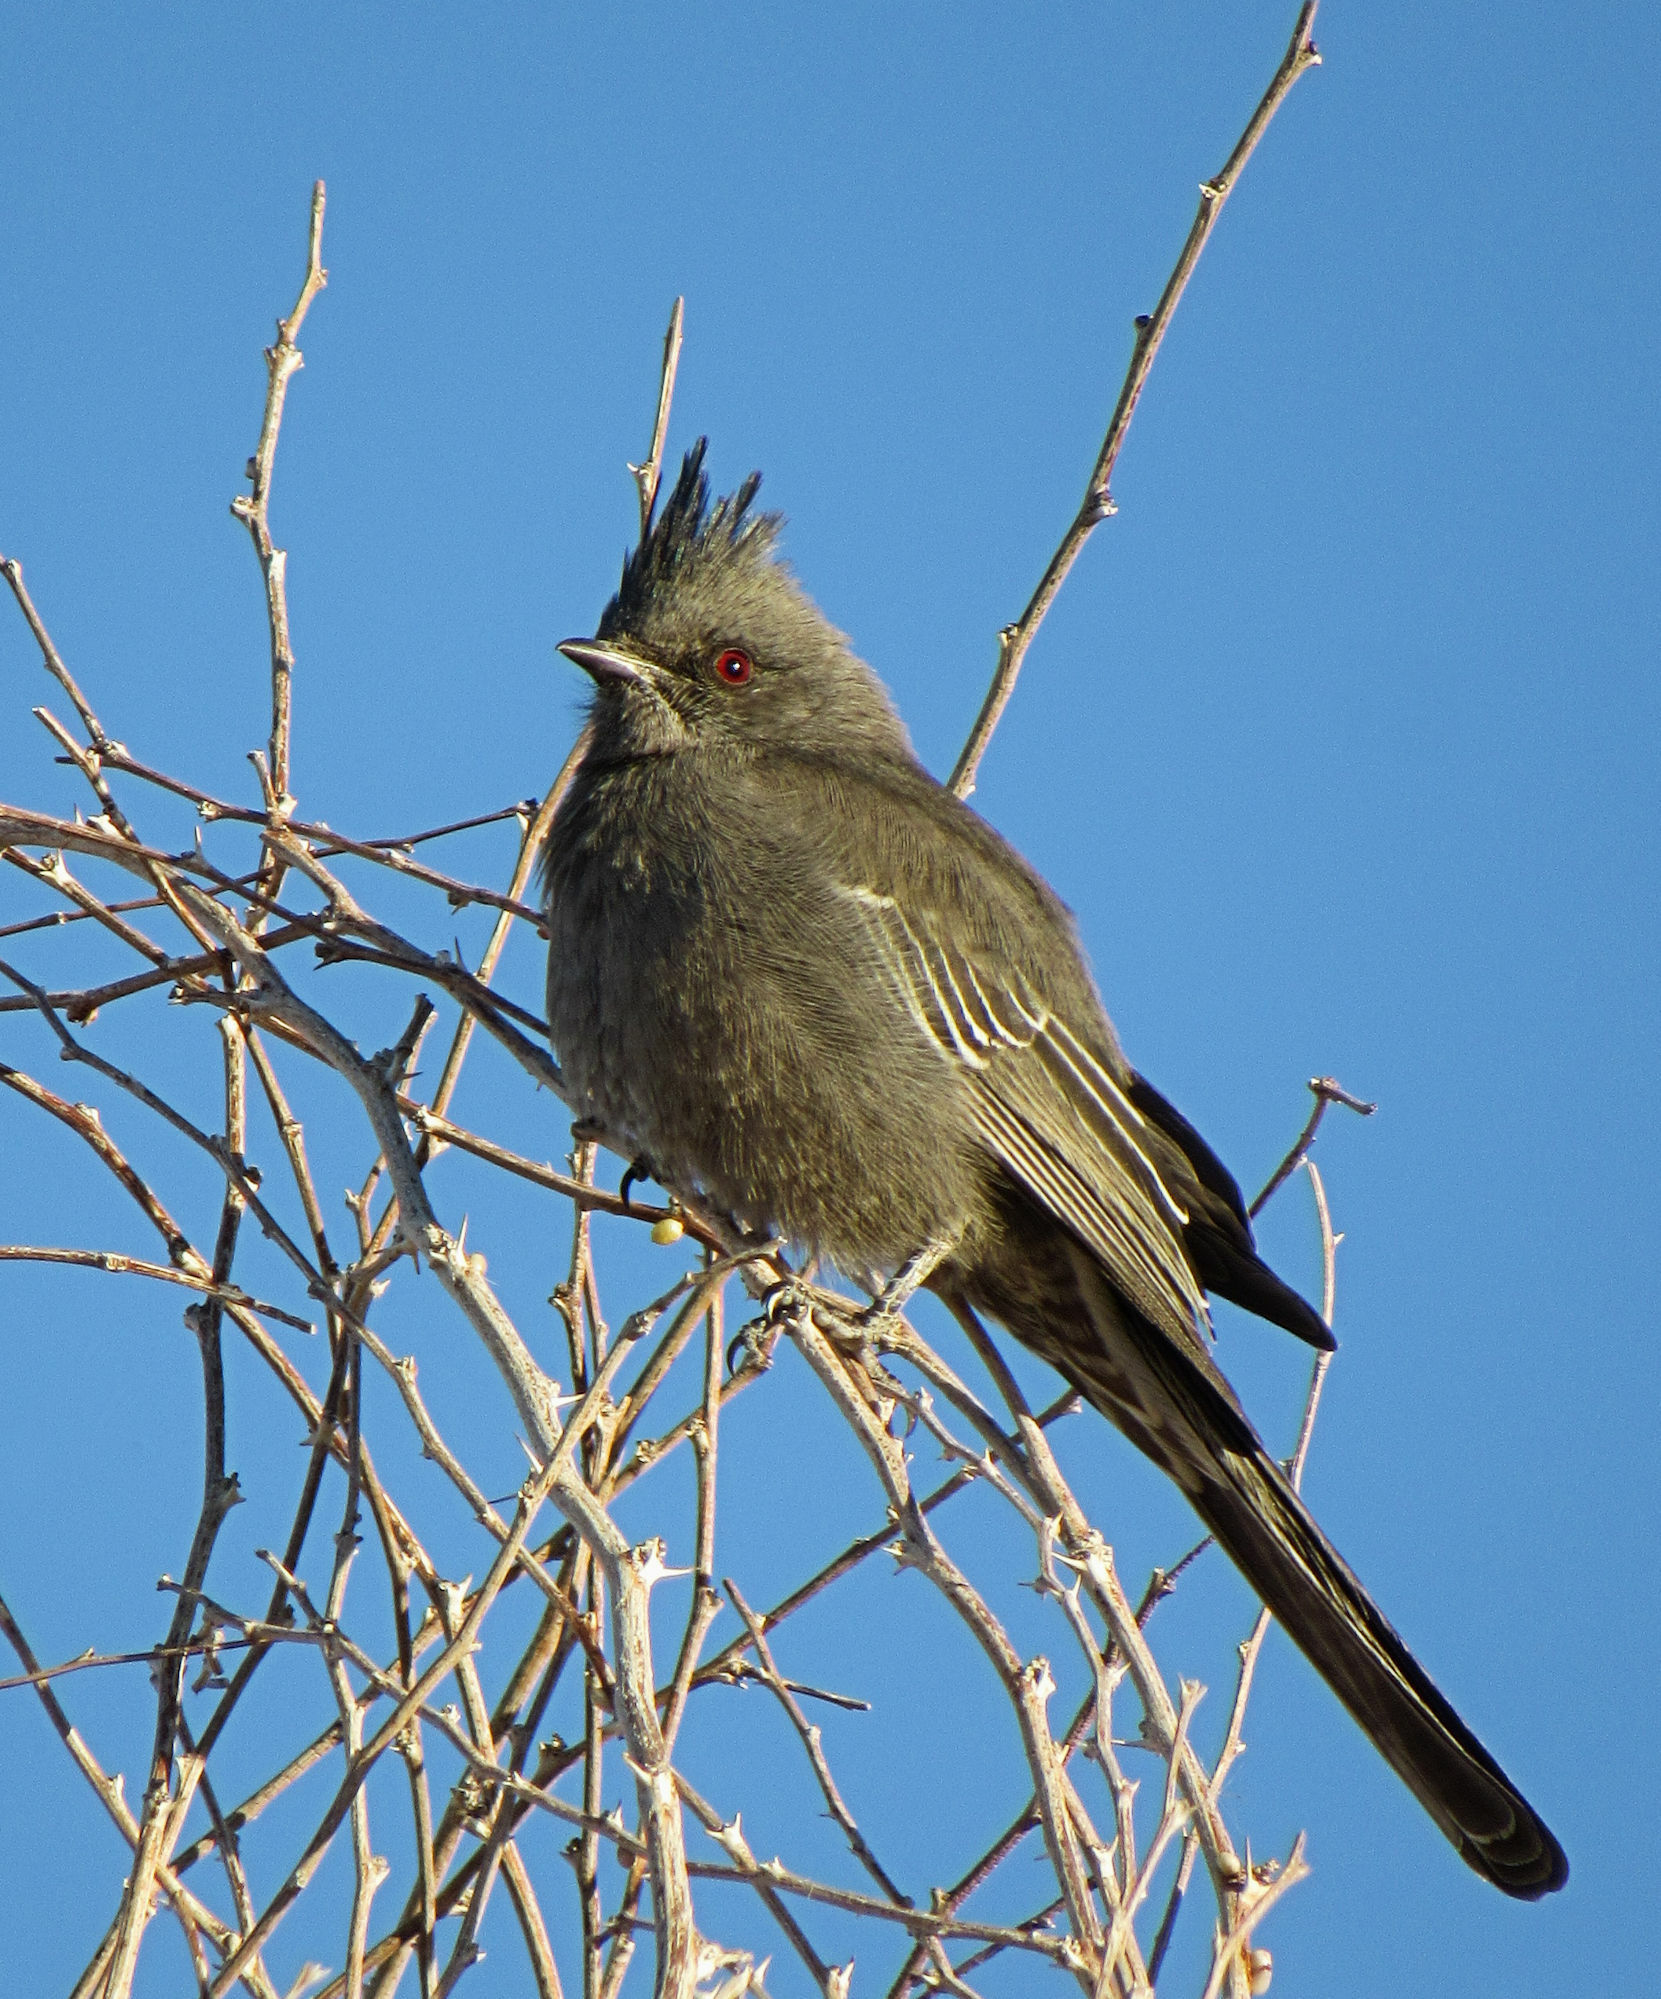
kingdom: Animalia
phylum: Chordata
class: Aves
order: Passeriformes
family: Ptilogonatidae
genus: Phainopepla
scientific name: Phainopepla nitens
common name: Phainopepla
